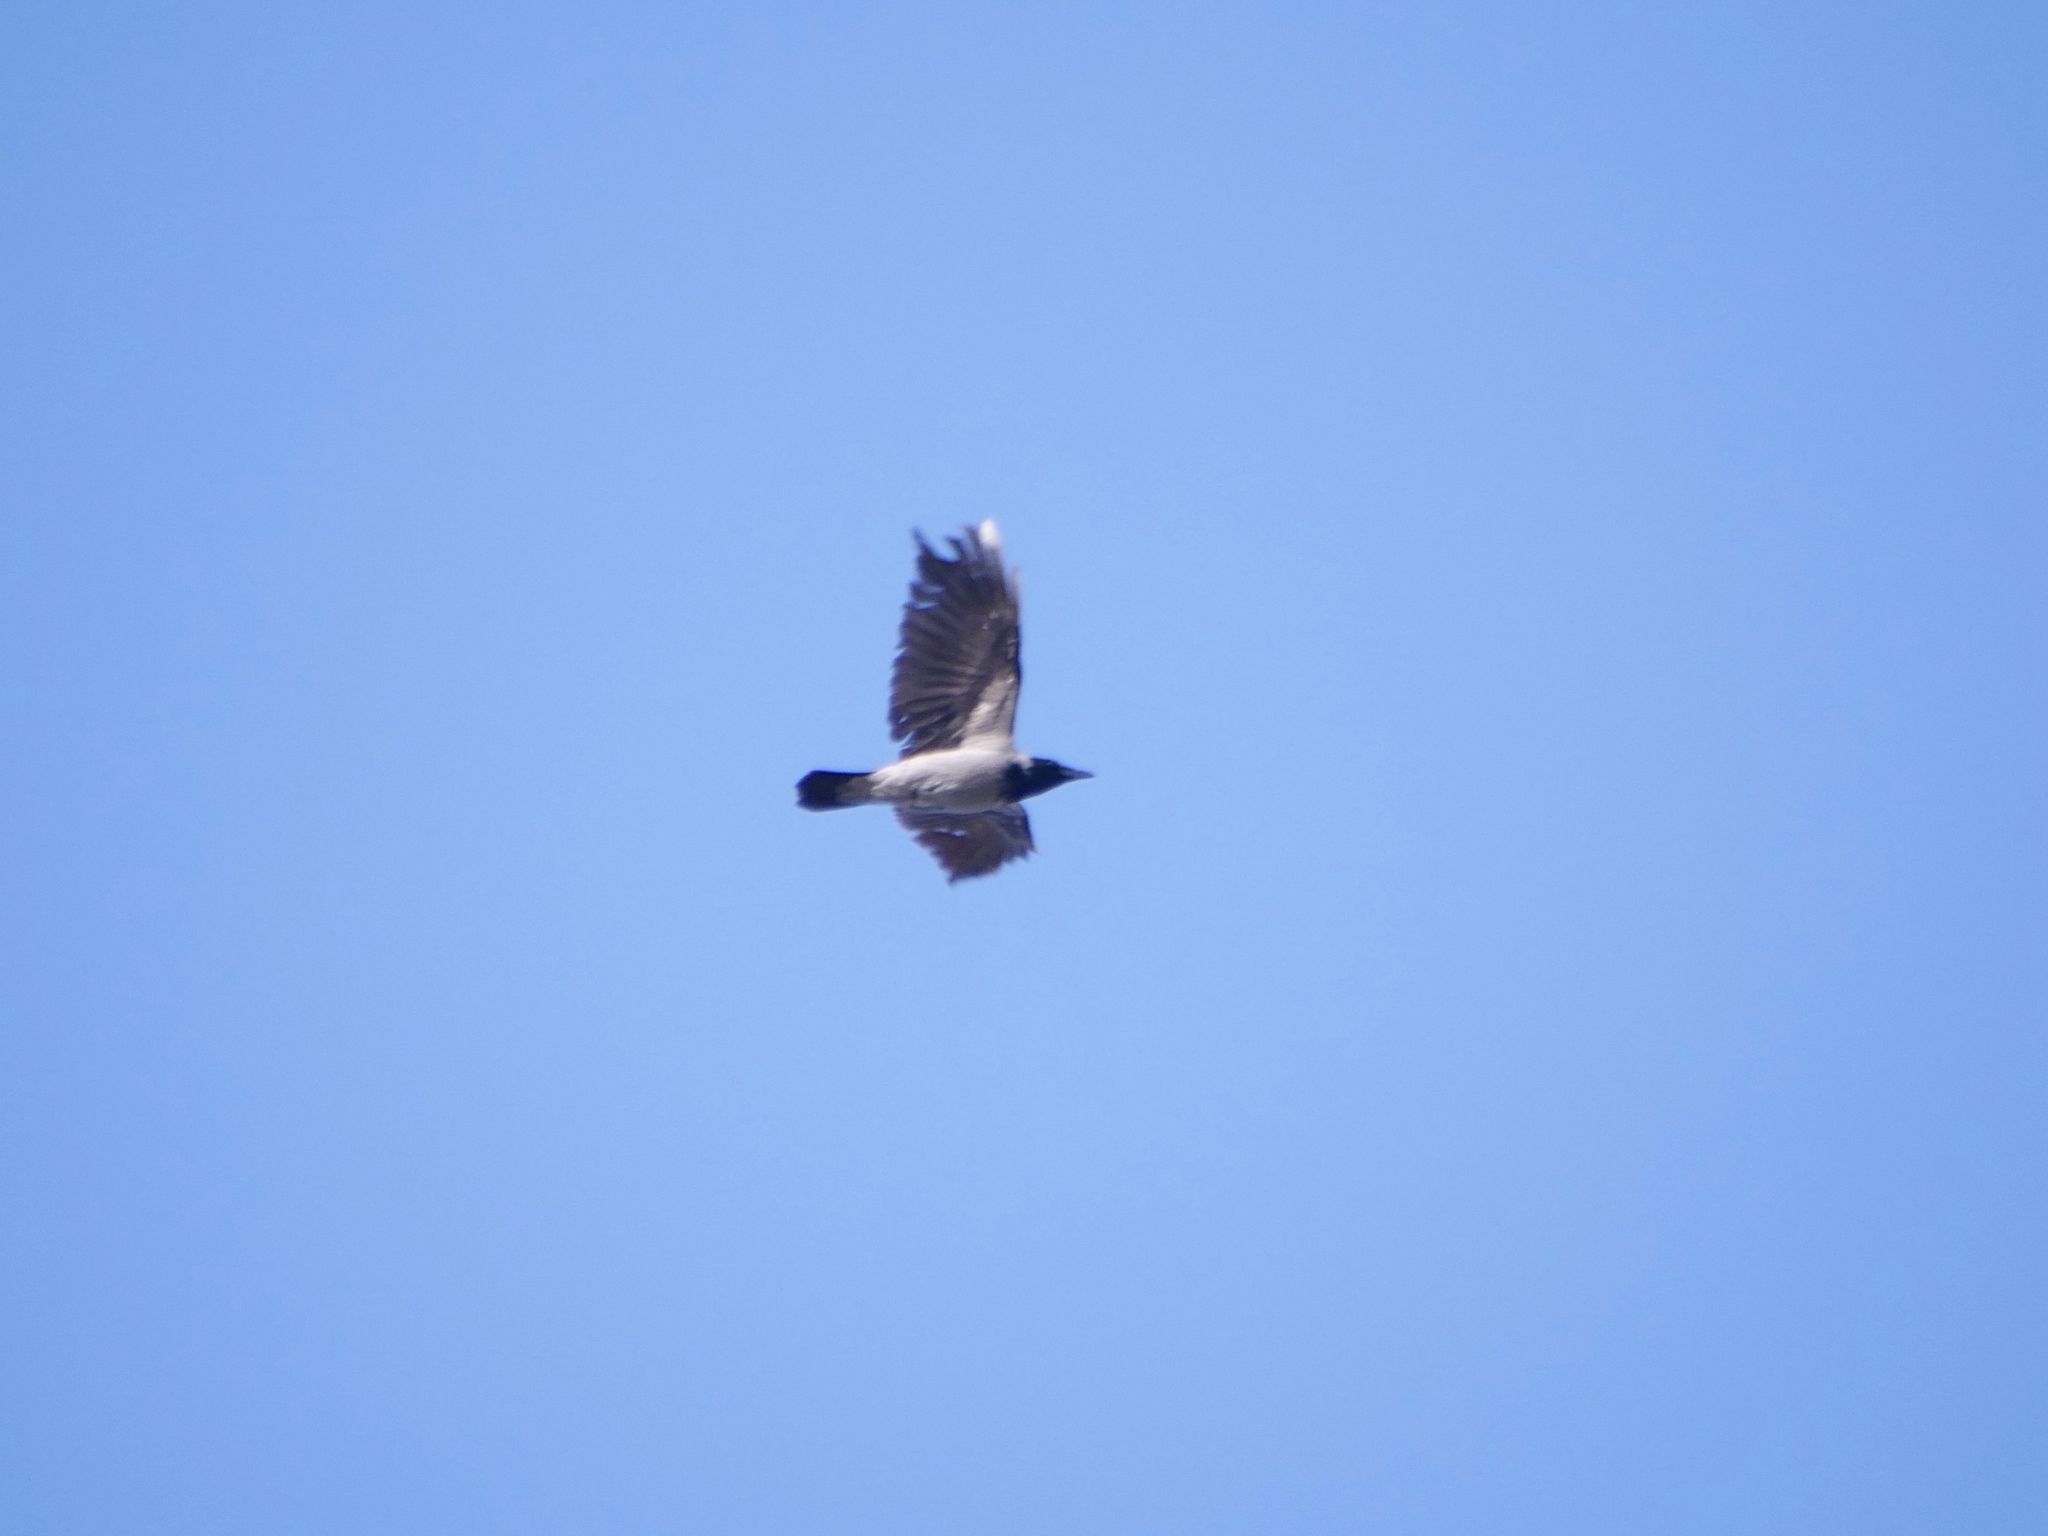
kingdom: Animalia
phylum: Chordata
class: Aves
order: Passeriformes
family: Corvidae
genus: Corvus
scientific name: Corvus cornix
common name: Hooded crow
